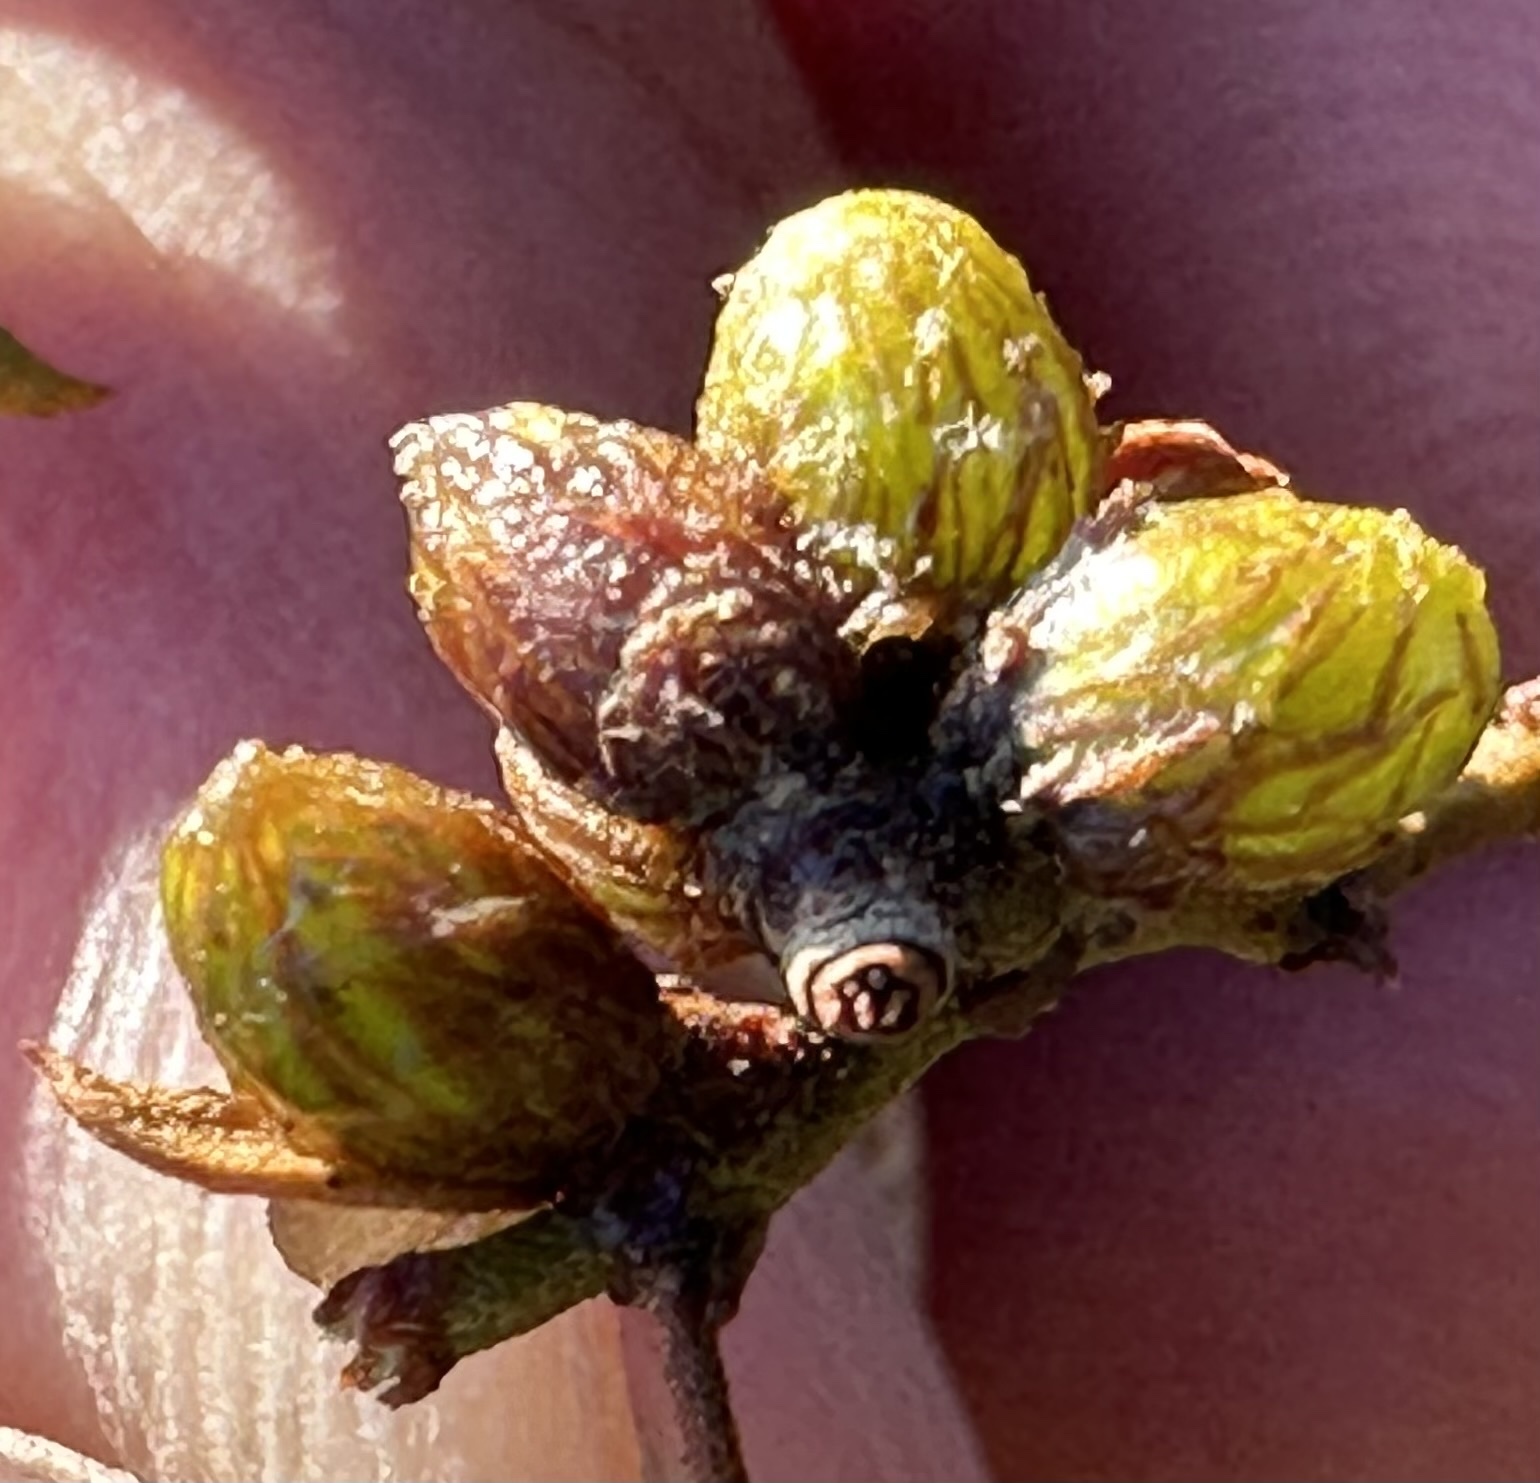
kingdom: Animalia
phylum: Arthropoda
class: Insecta
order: Diptera
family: Cecidomyiidae
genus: Asphondylia
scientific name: Asphondylia resinosa
